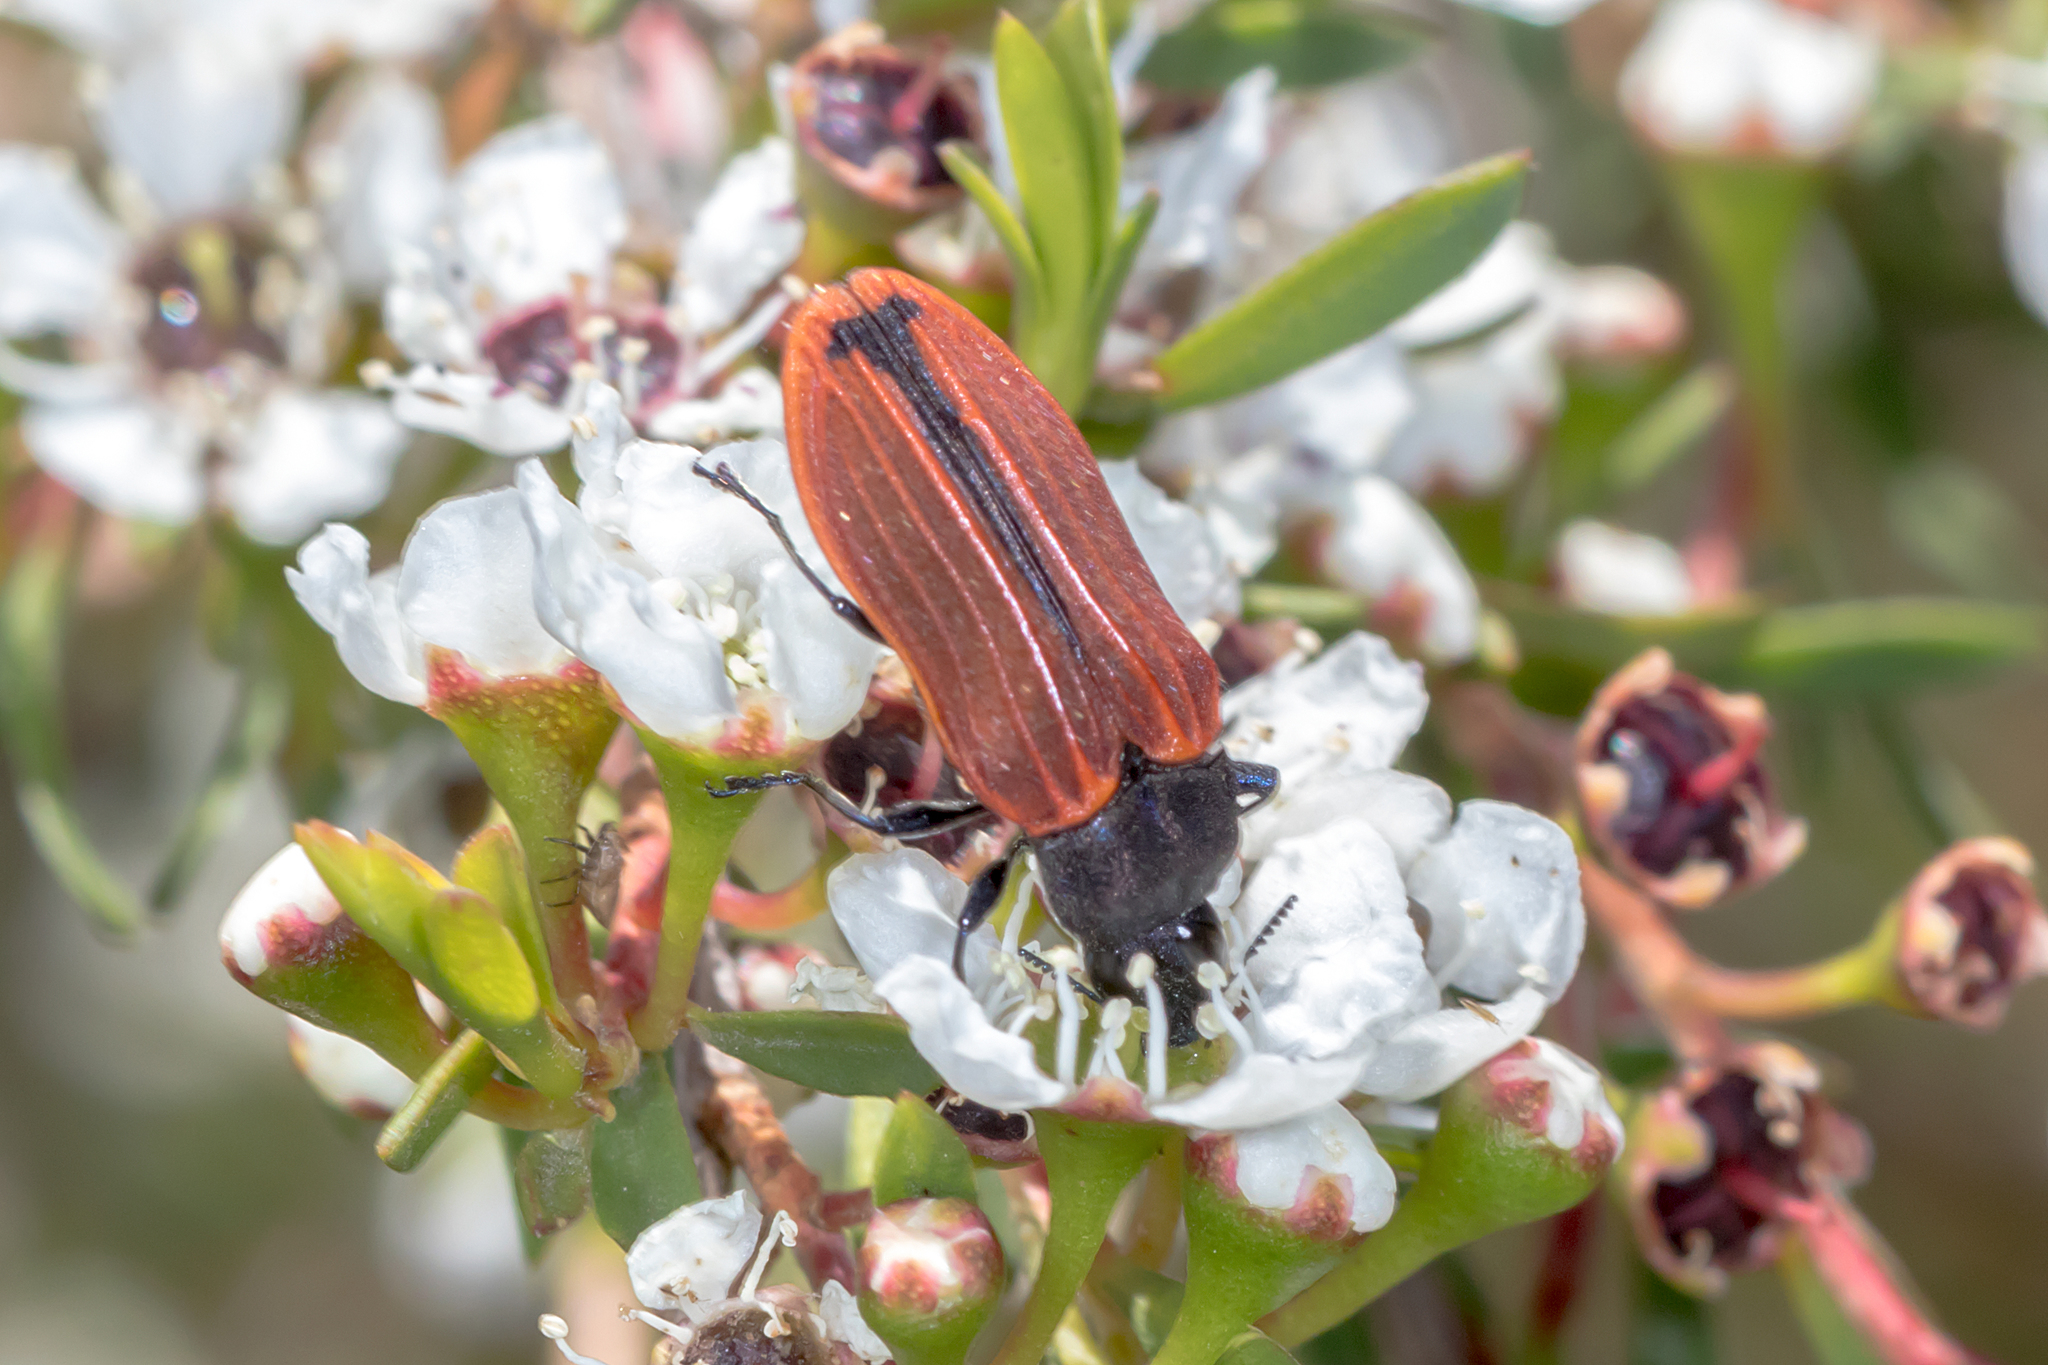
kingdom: Animalia
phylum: Arthropoda
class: Insecta
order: Coleoptera
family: Buprestidae
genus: Castiarina
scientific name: Castiarina erythroptera
